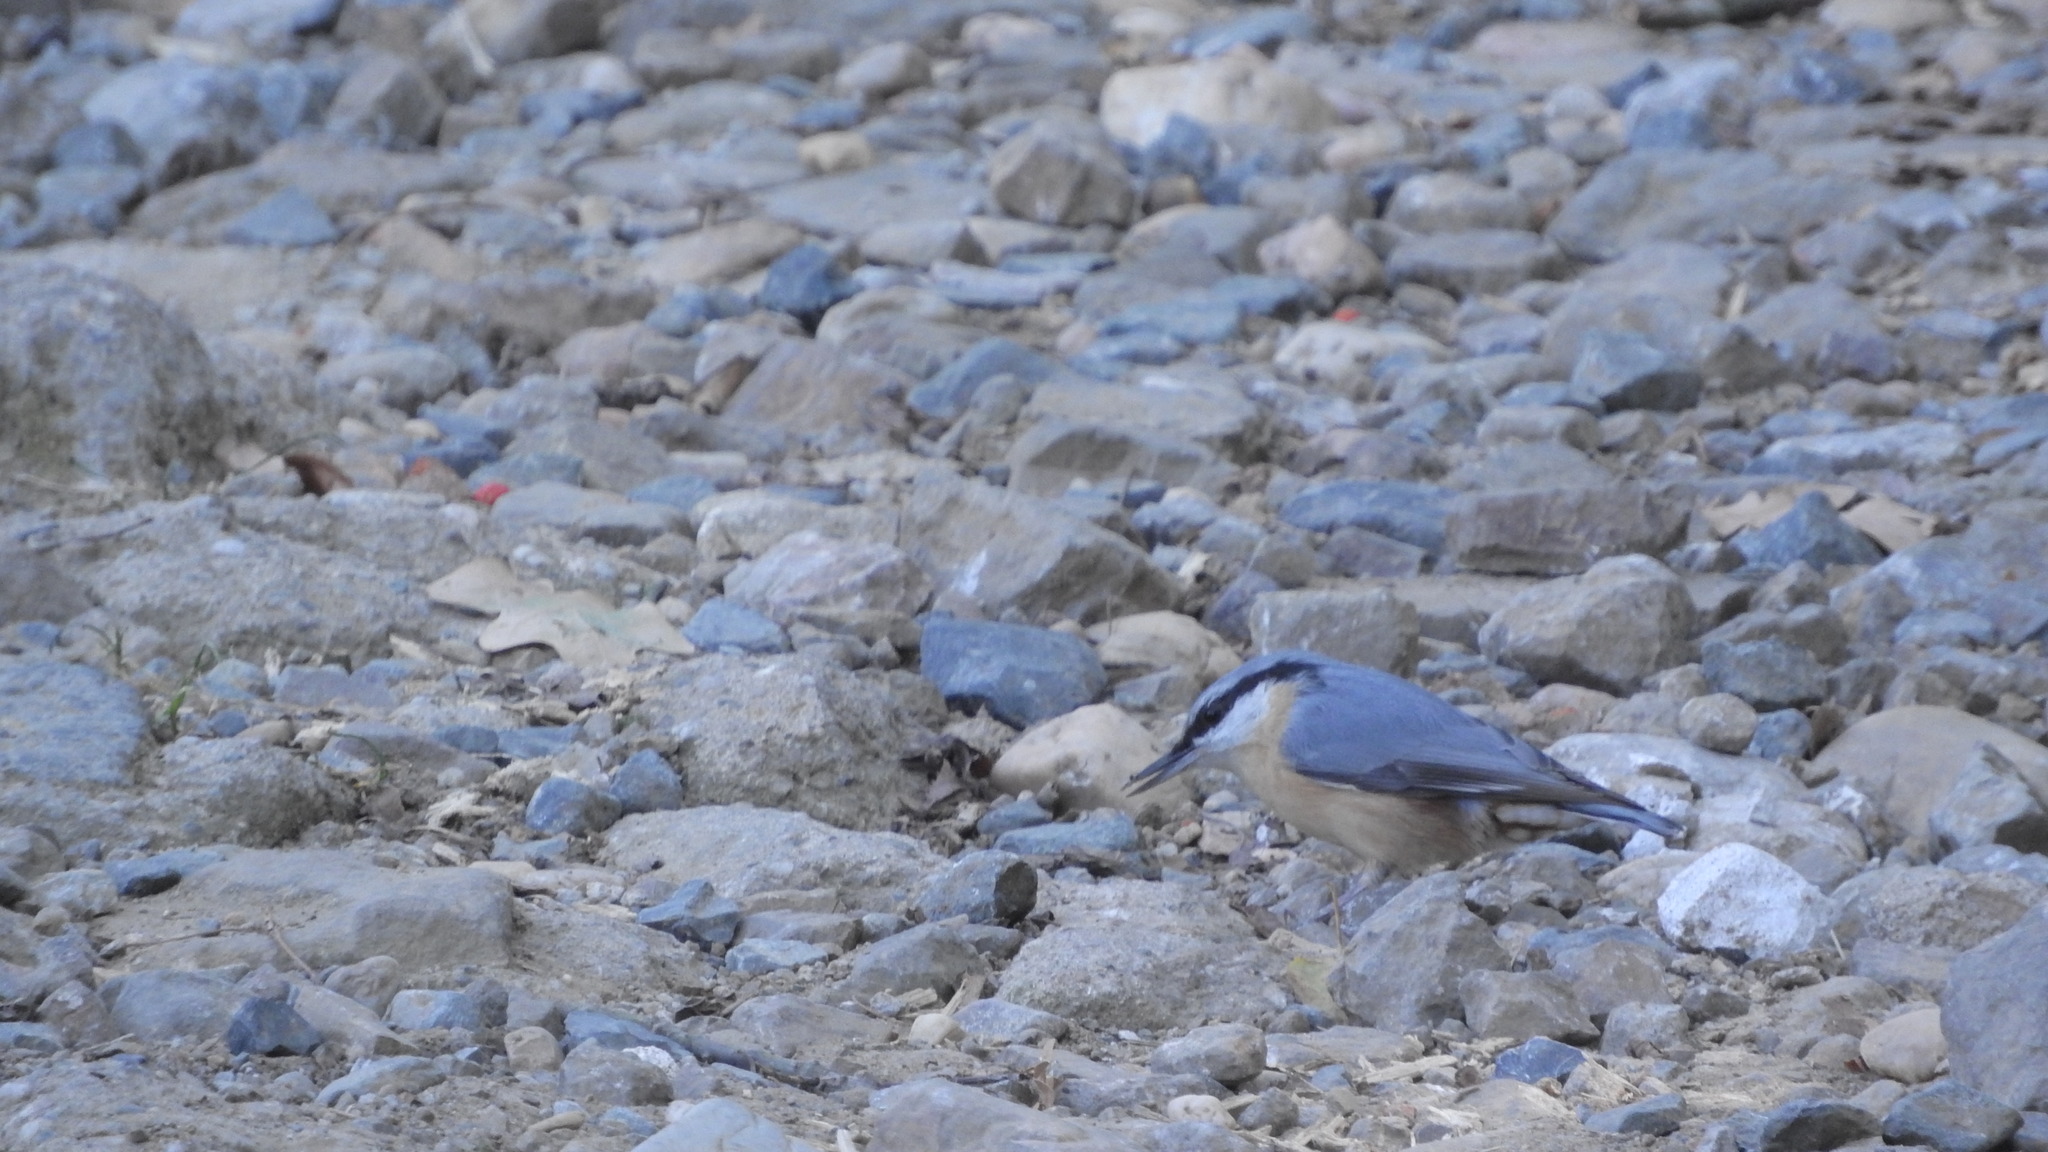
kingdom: Animalia
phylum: Chordata
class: Aves
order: Passeriformes
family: Sittidae
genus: Sitta
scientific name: Sitta europaea
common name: Eurasian nuthatch
